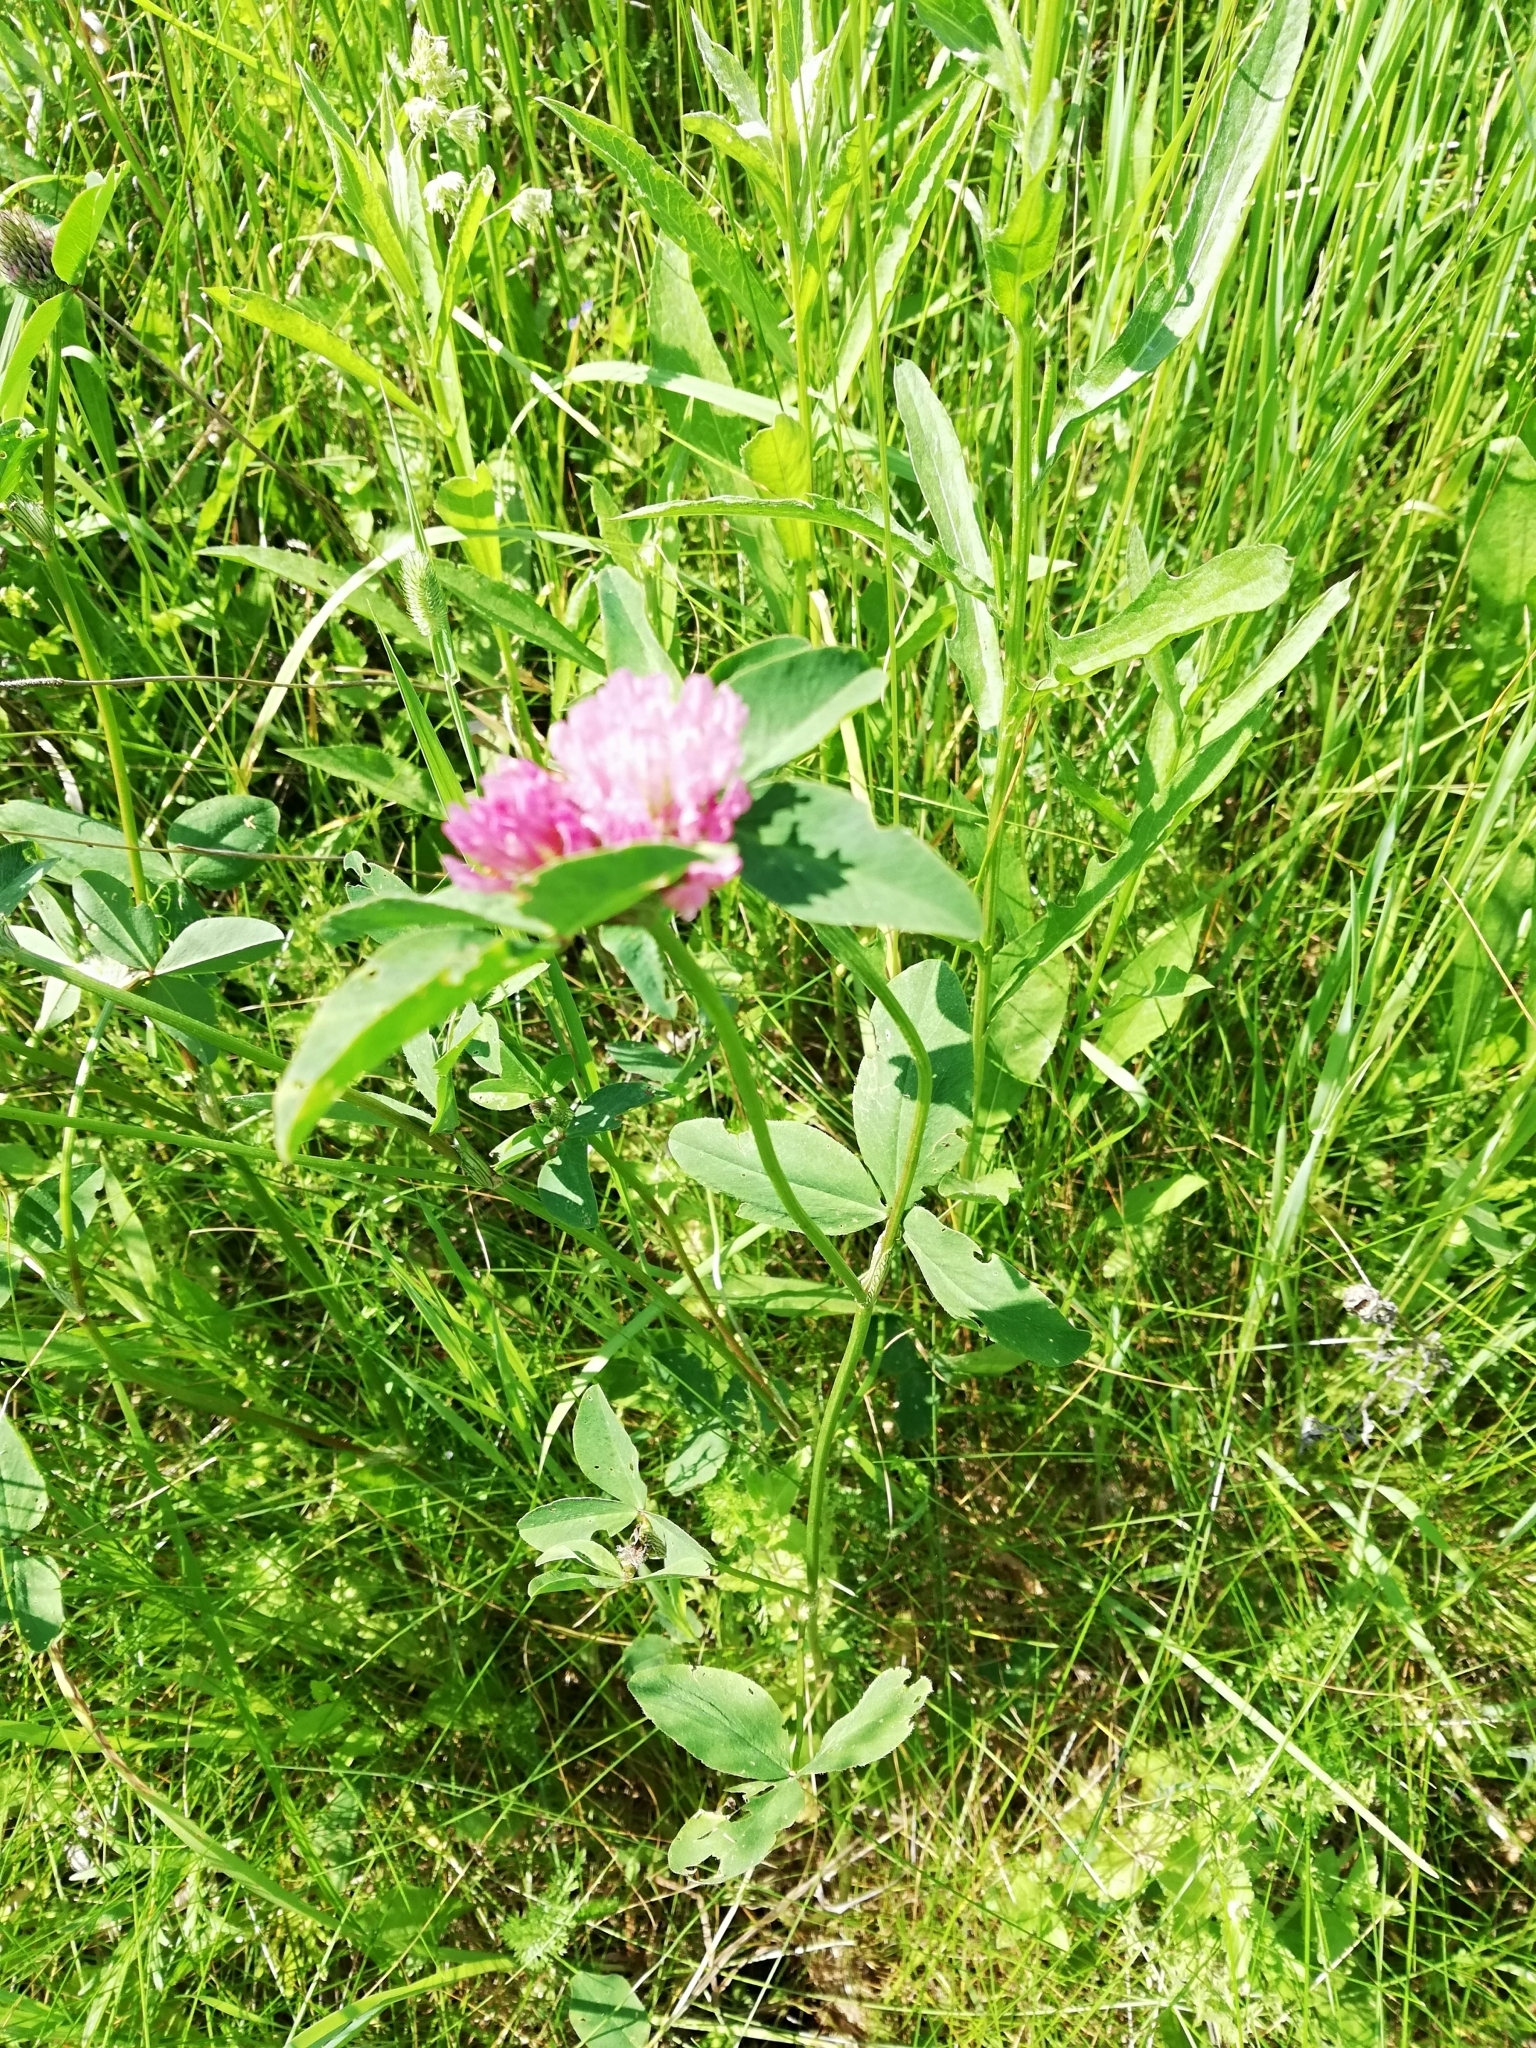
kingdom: Plantae
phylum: Tracheophyta
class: Magnoliopsida
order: Fabales
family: Fabaceae
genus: Trifolium
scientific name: Trifolium pratense
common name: Red clover
